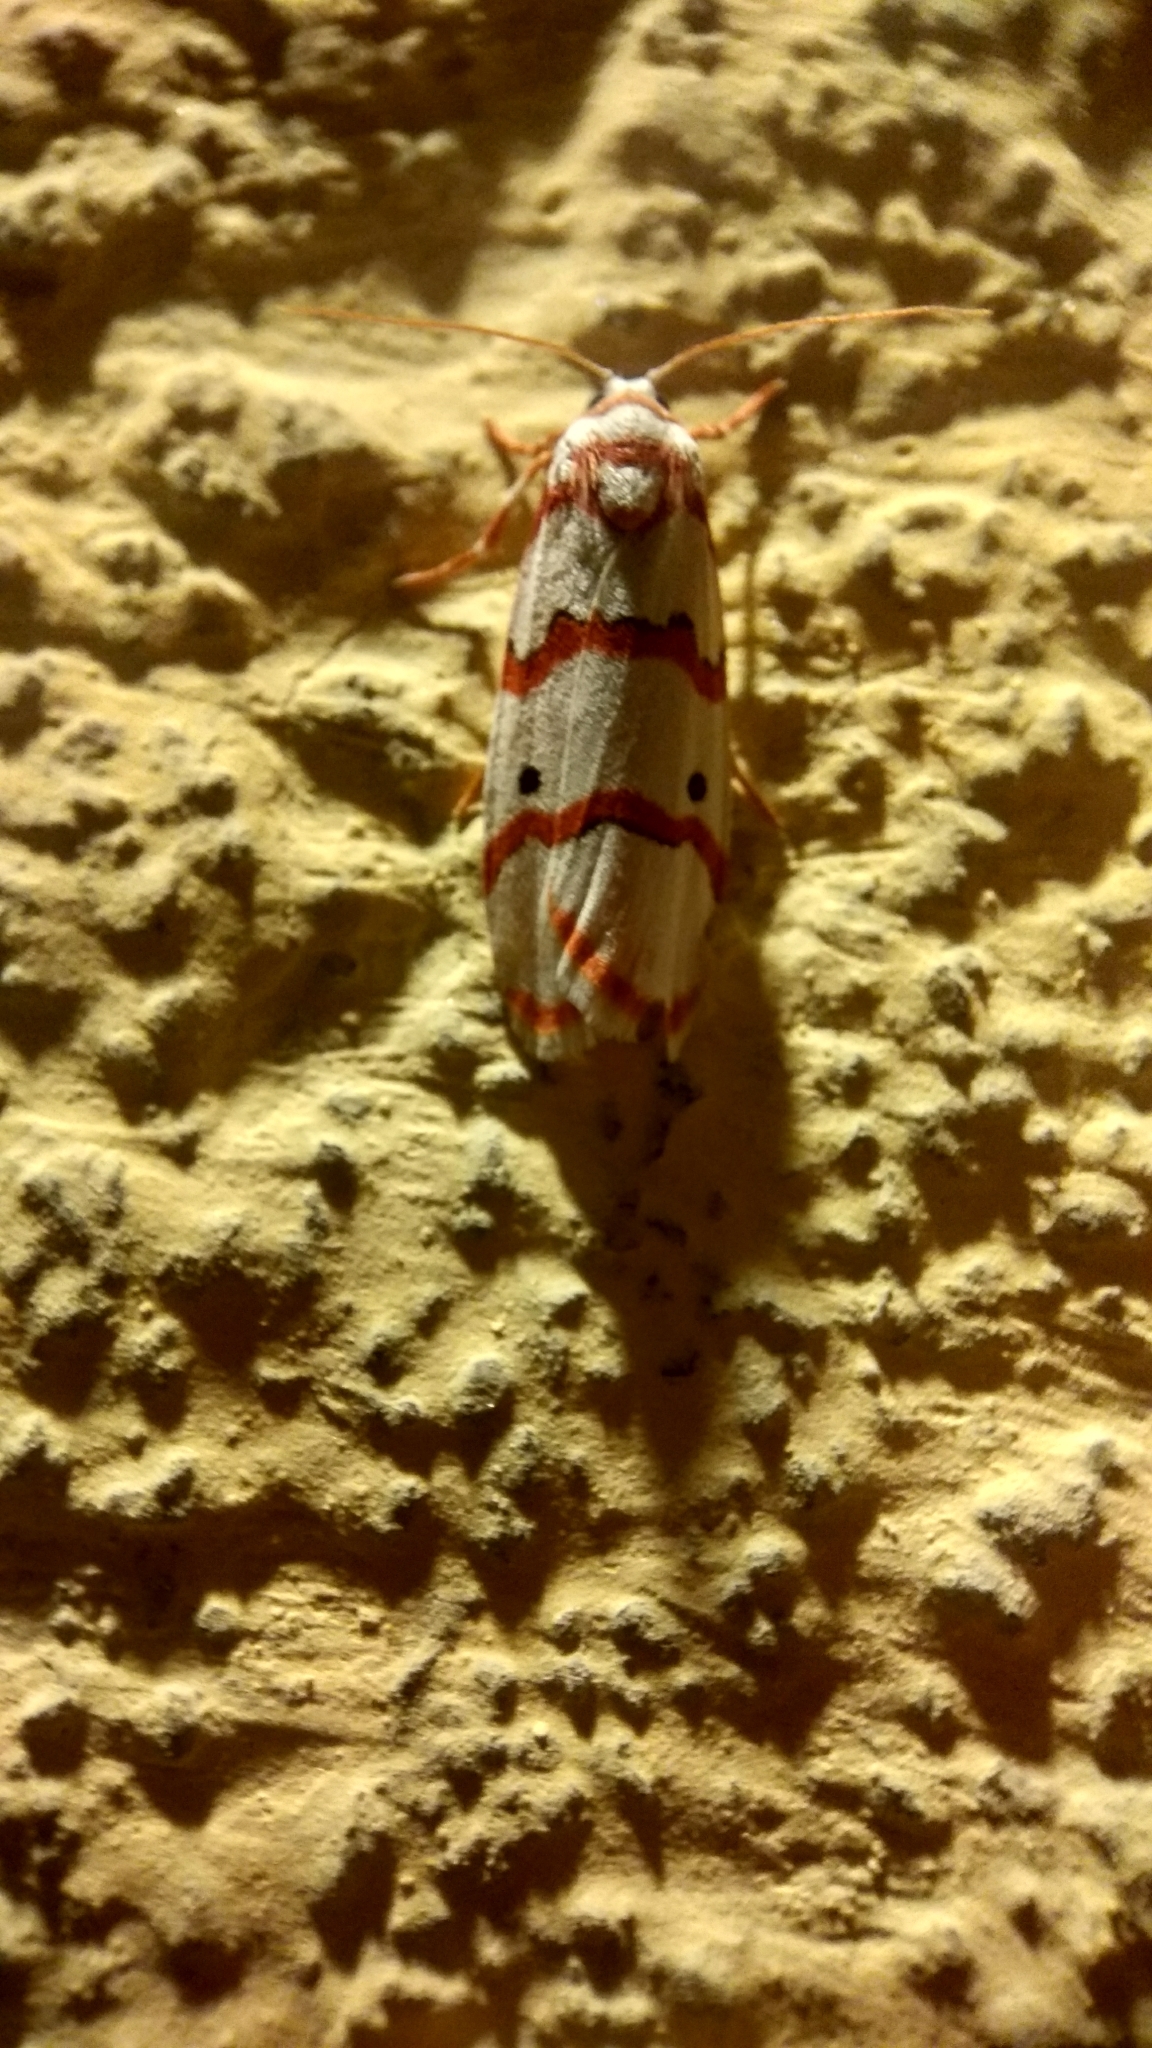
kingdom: Animalia
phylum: Arthropoda
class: Insecta
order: Lepidoptera
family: Erebidae
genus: Cyana
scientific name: Cyana puella
